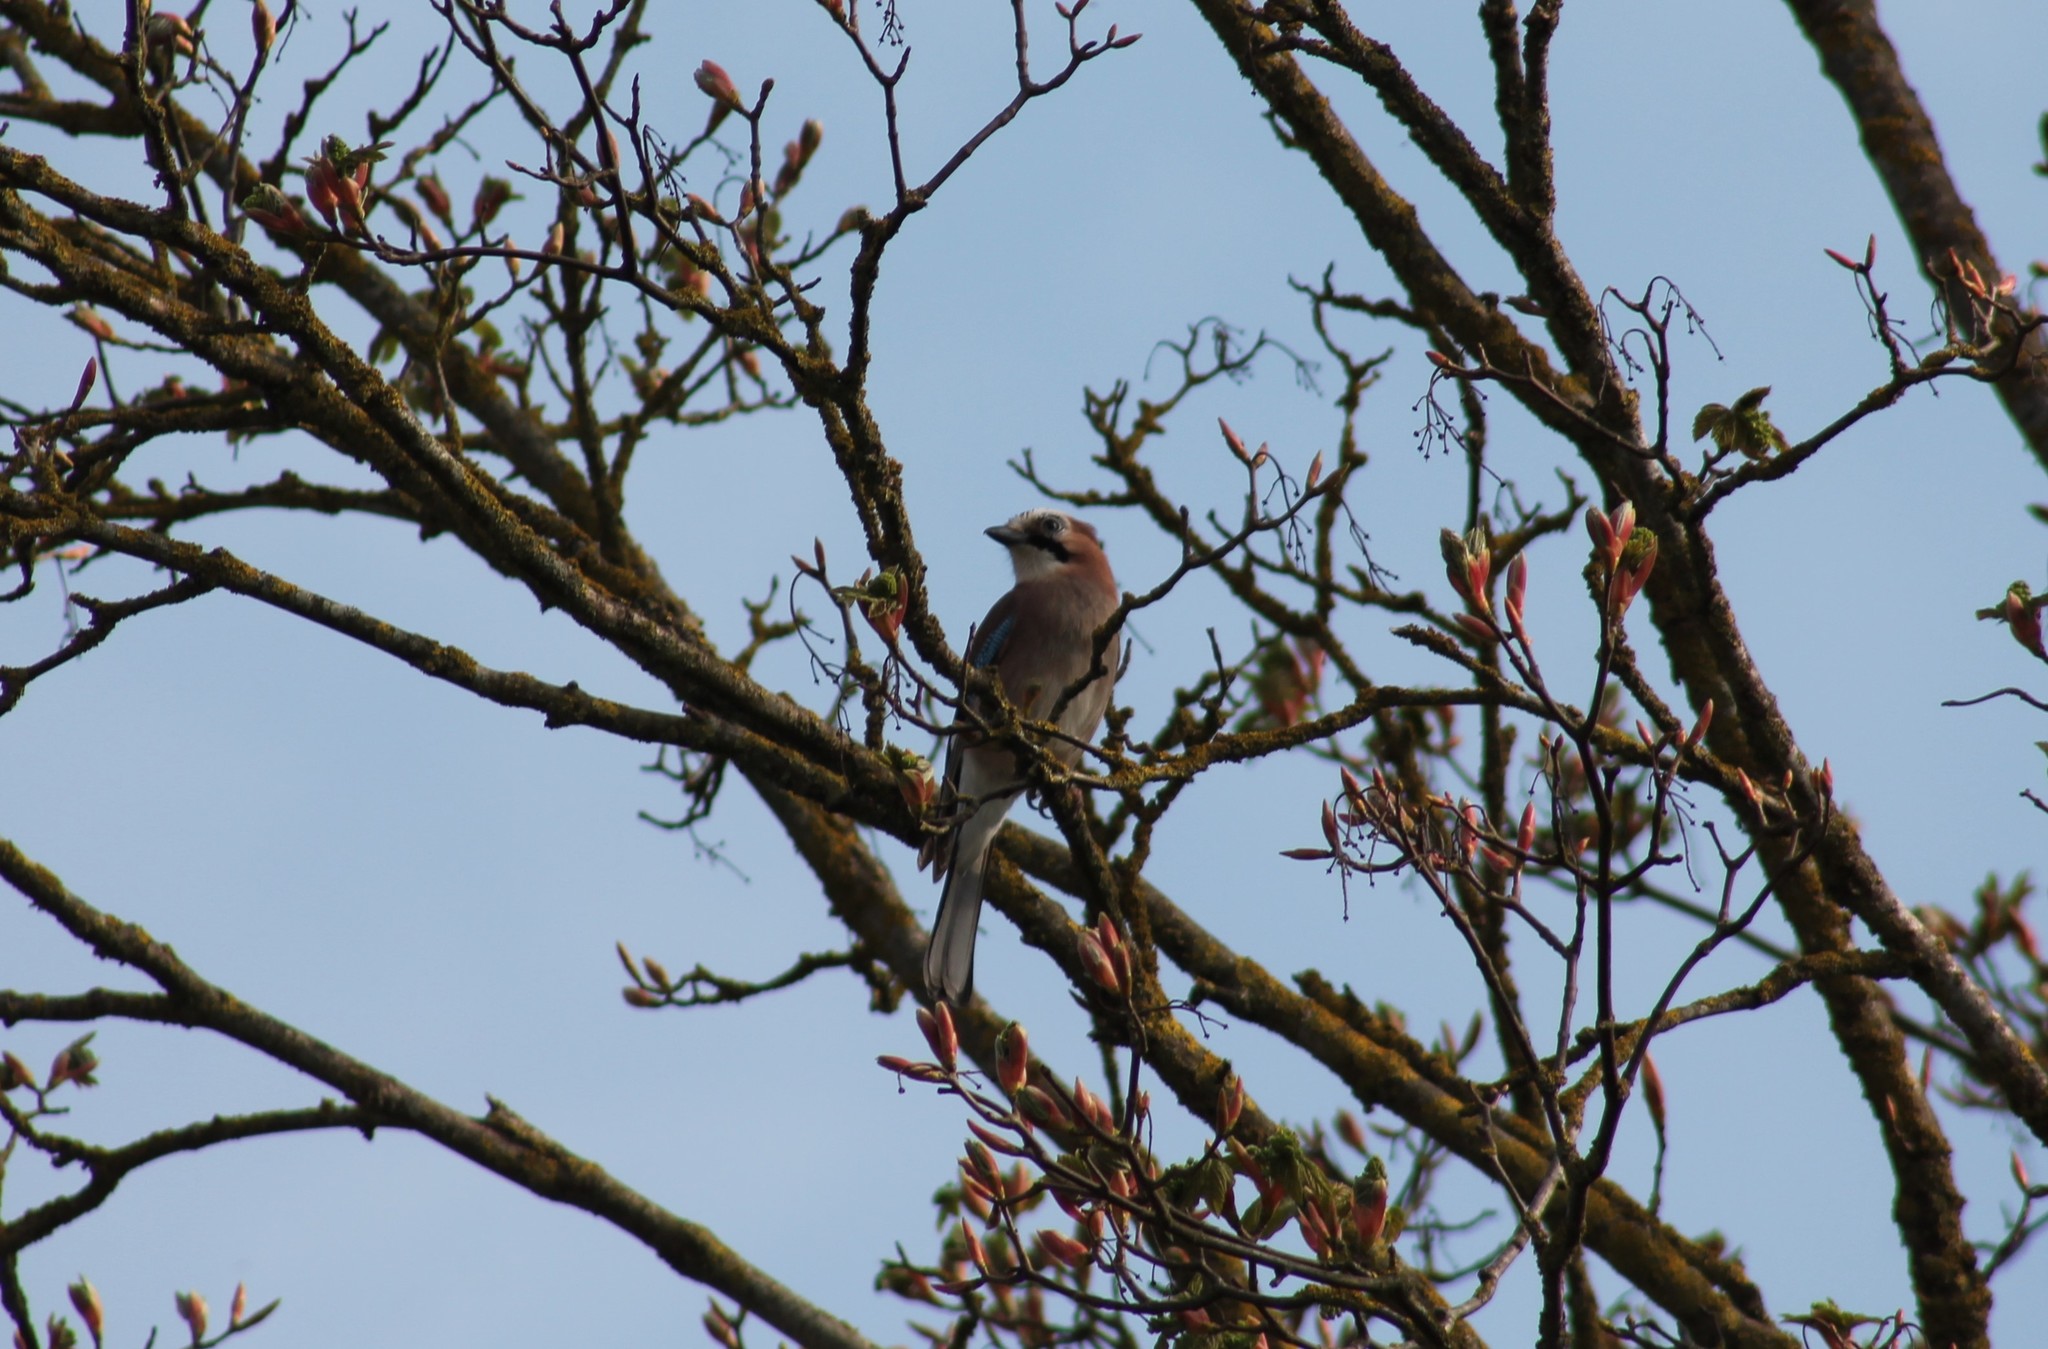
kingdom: Animalia
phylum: Chordata
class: Aves
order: Passeriformes
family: Corvidae
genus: Garrulus
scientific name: Garrulus glandarius
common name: Eurasian jay
